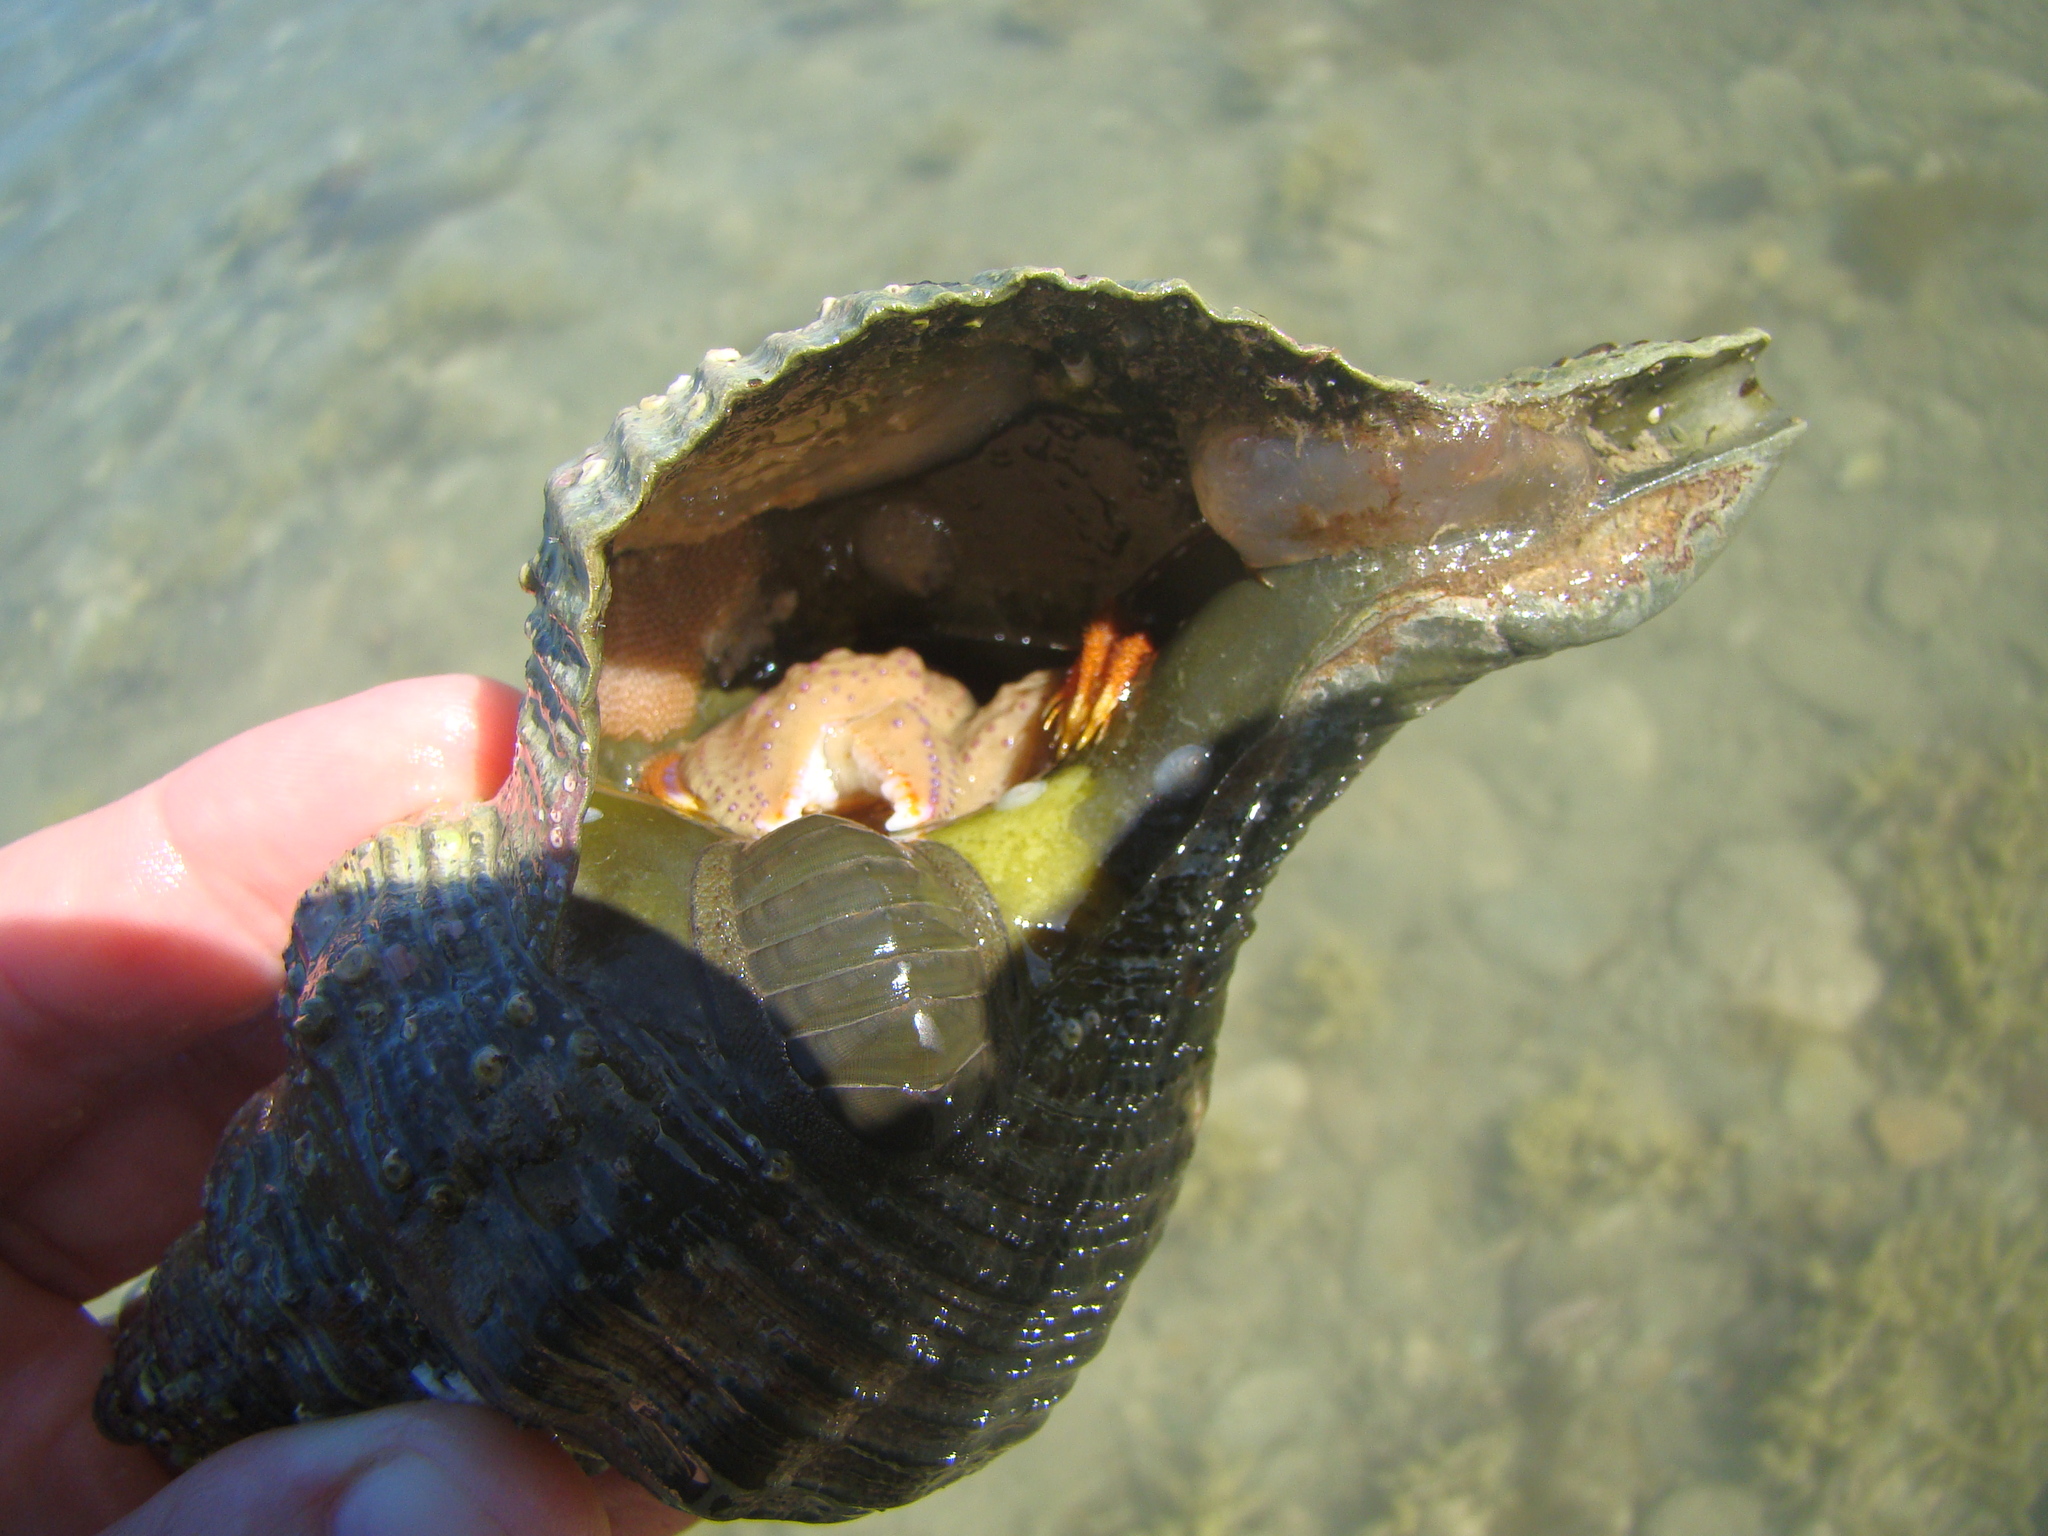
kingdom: Animalia
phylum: Arthropoda
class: Malacostraca
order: Decapoda
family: Paguridae
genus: Diacanthurus
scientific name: Diacanthurus spinulimanus
